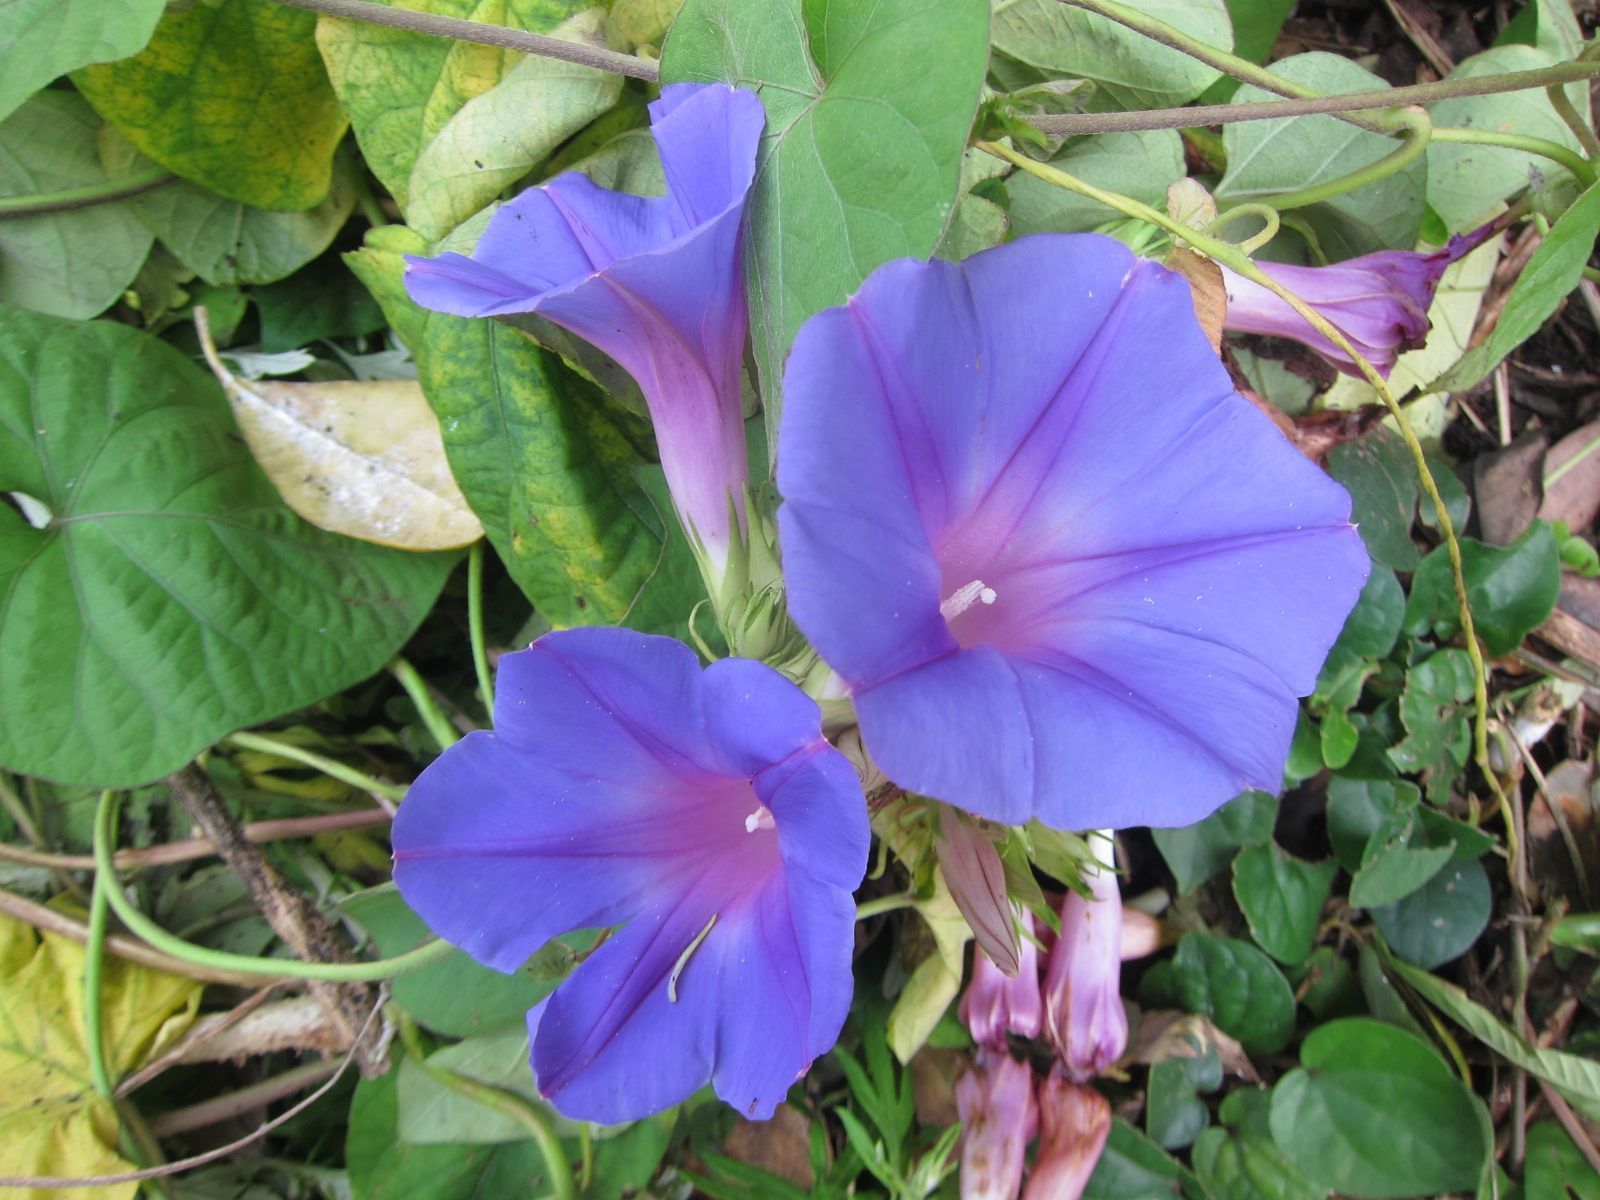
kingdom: Plantae
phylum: Tracheophyta
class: Magnoliopsida
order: Solanales
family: Convolvulaceae
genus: Ipomoea
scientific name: Ipomoea indica
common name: Blue dawnflower
